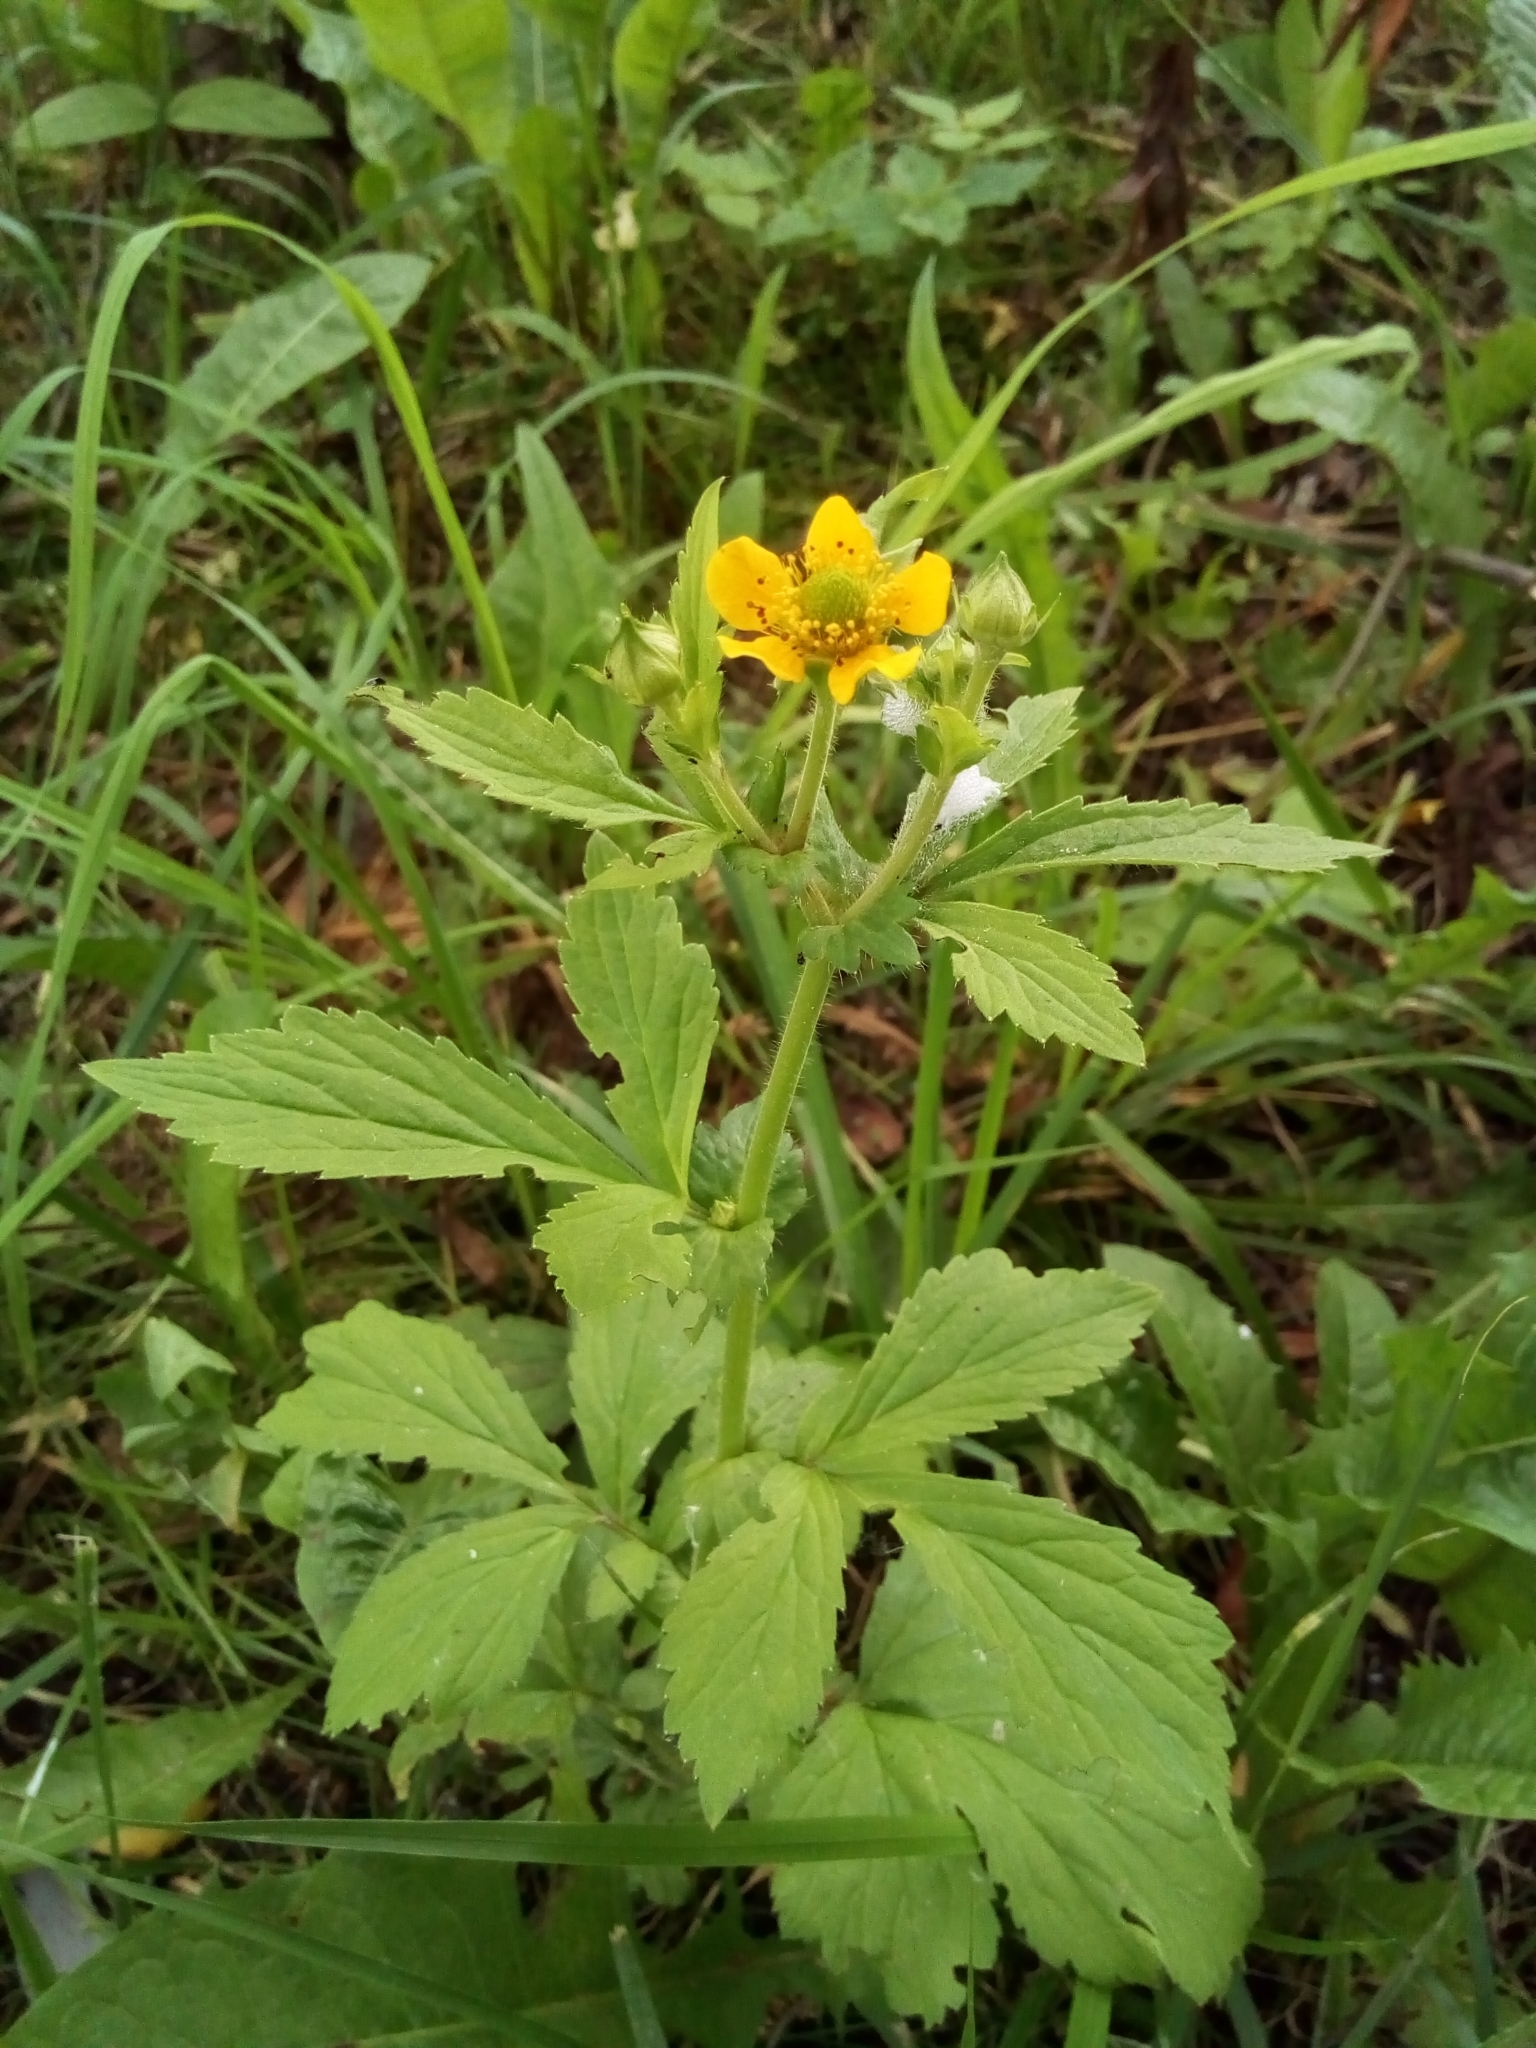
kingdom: Plantae
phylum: Tracheophyta
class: Magnoliopsida
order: Rosales
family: Rosaceae
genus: Geum
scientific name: Geum aleppicum
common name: Yellow avens
